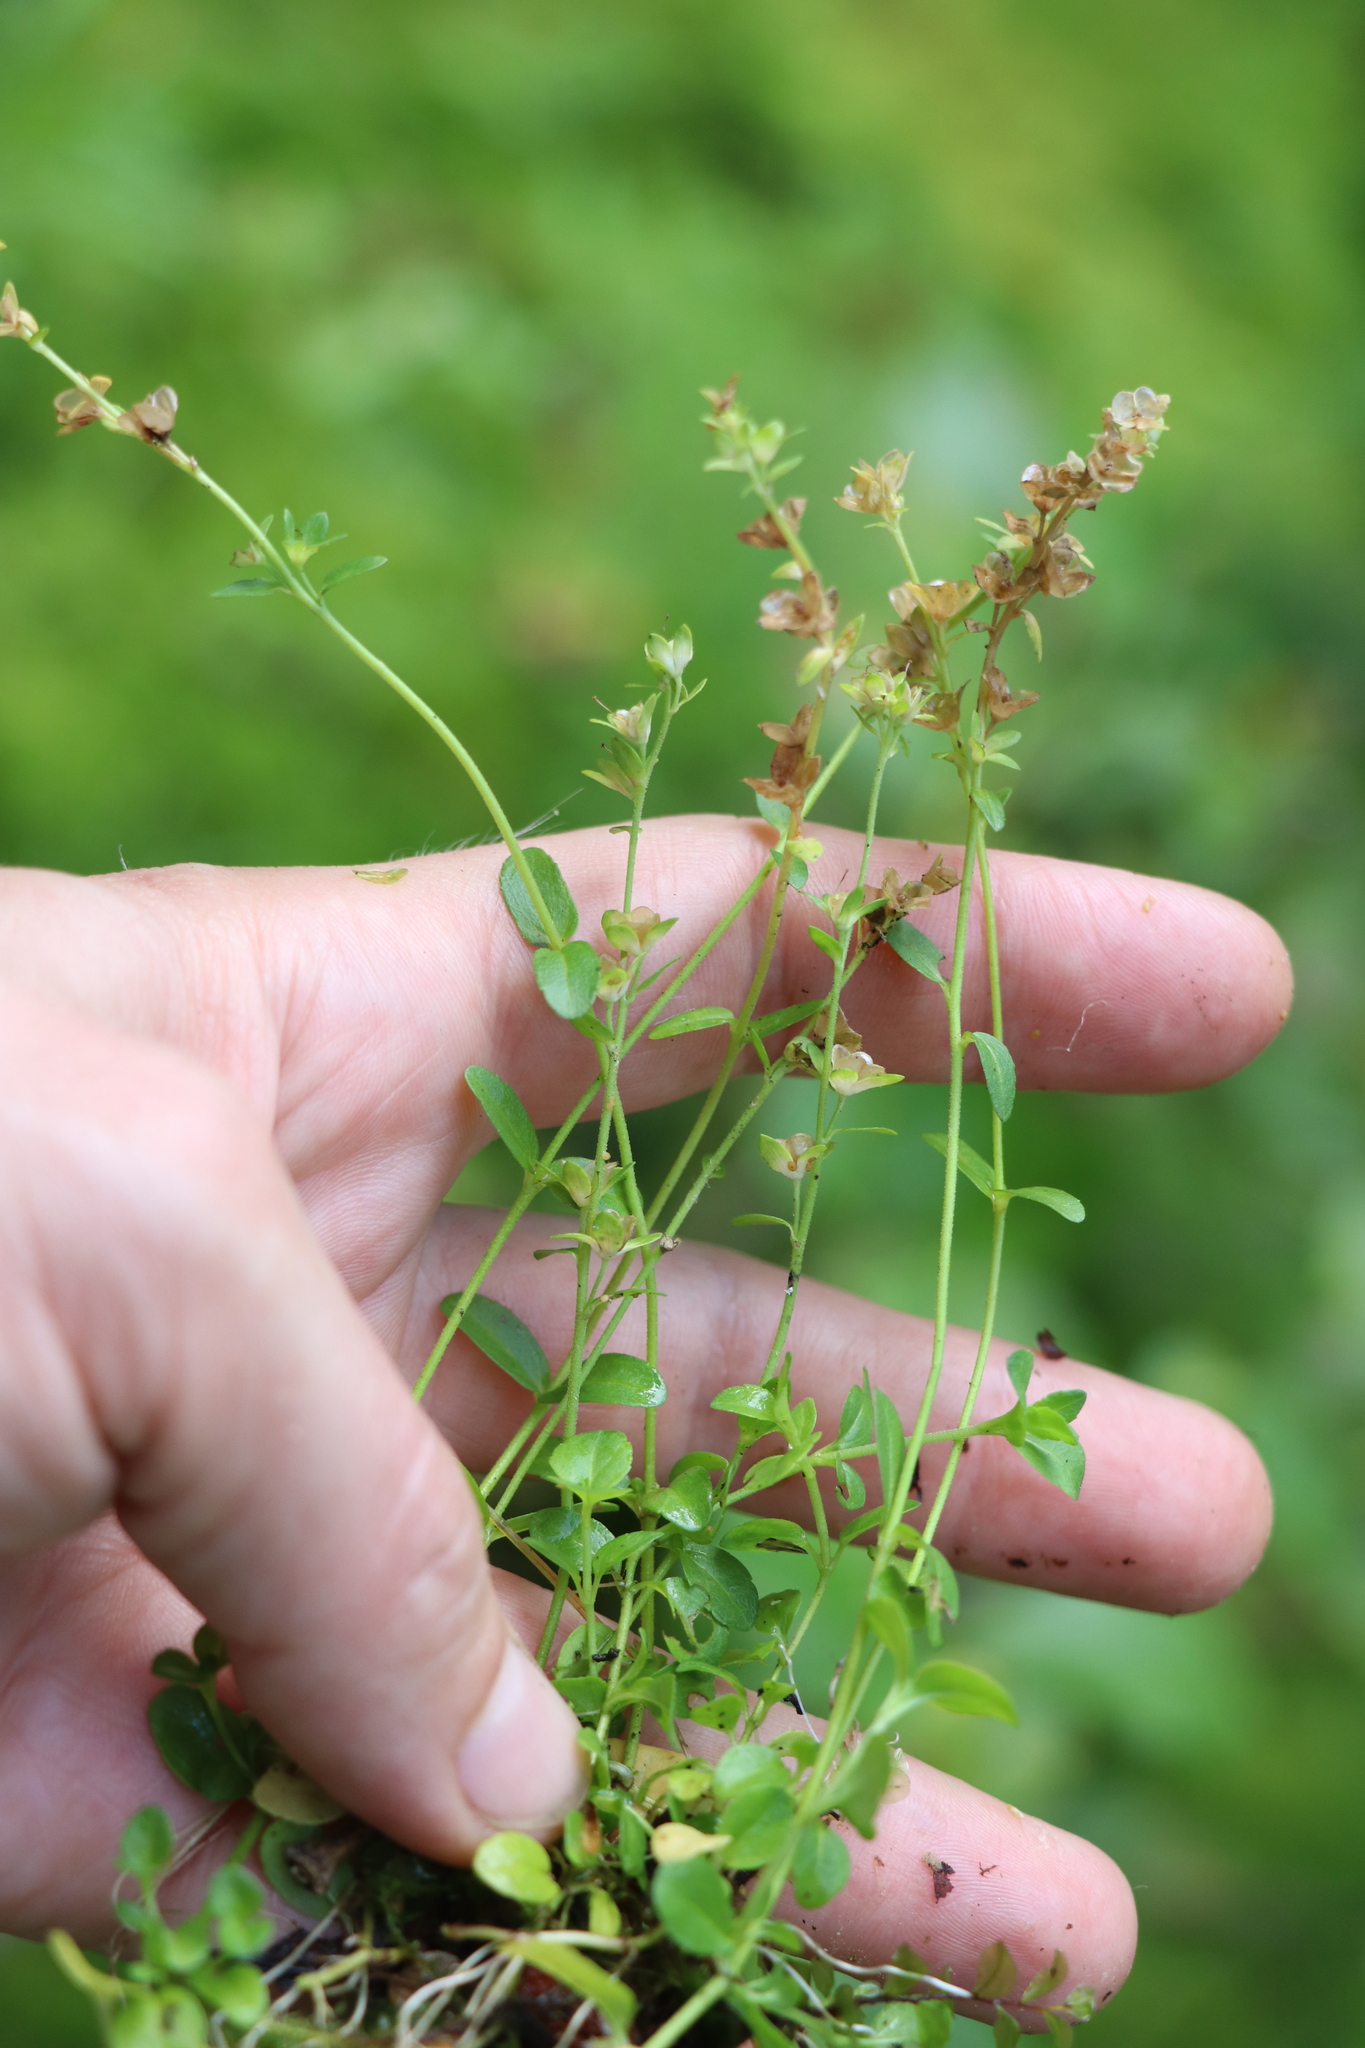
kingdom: Plantae
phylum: Tracheophyta
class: Magnoliopsida
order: Lamiales
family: Plantaginaceae
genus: Veronica
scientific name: Veronica serpyllifolia
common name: Thyme-leaved speedwell
